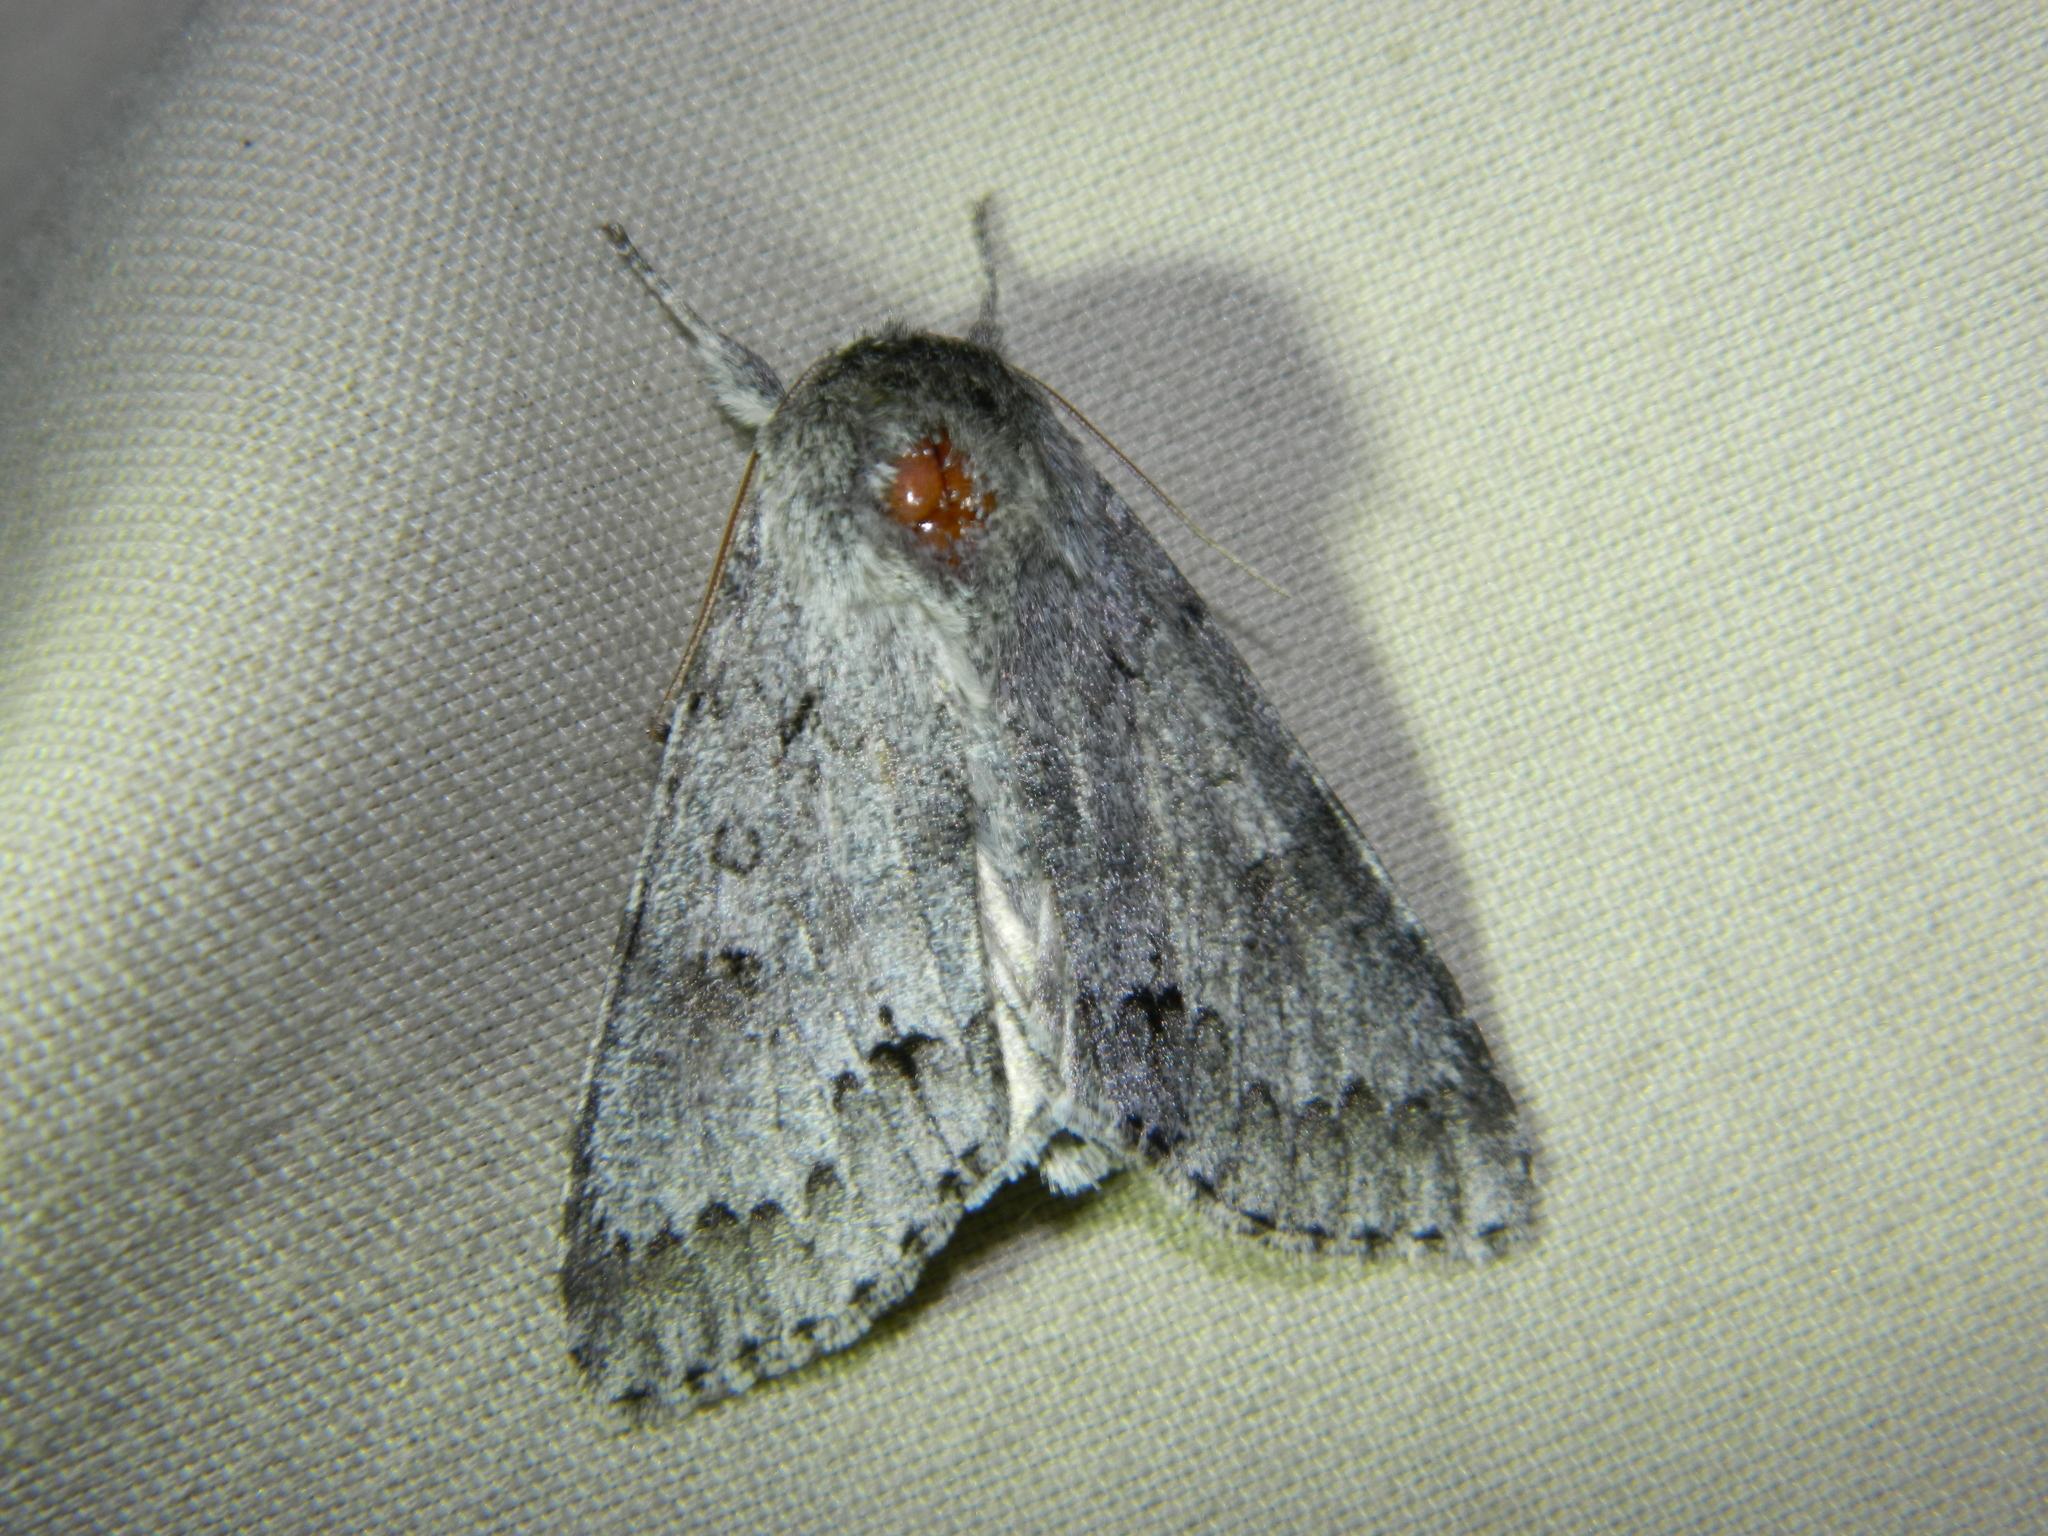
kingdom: Animalia
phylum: Arthropoda
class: Insecta
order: Lepidoptera
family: Noctuidae
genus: Acronicta
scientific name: Acronicta insita
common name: Large gray dagger
